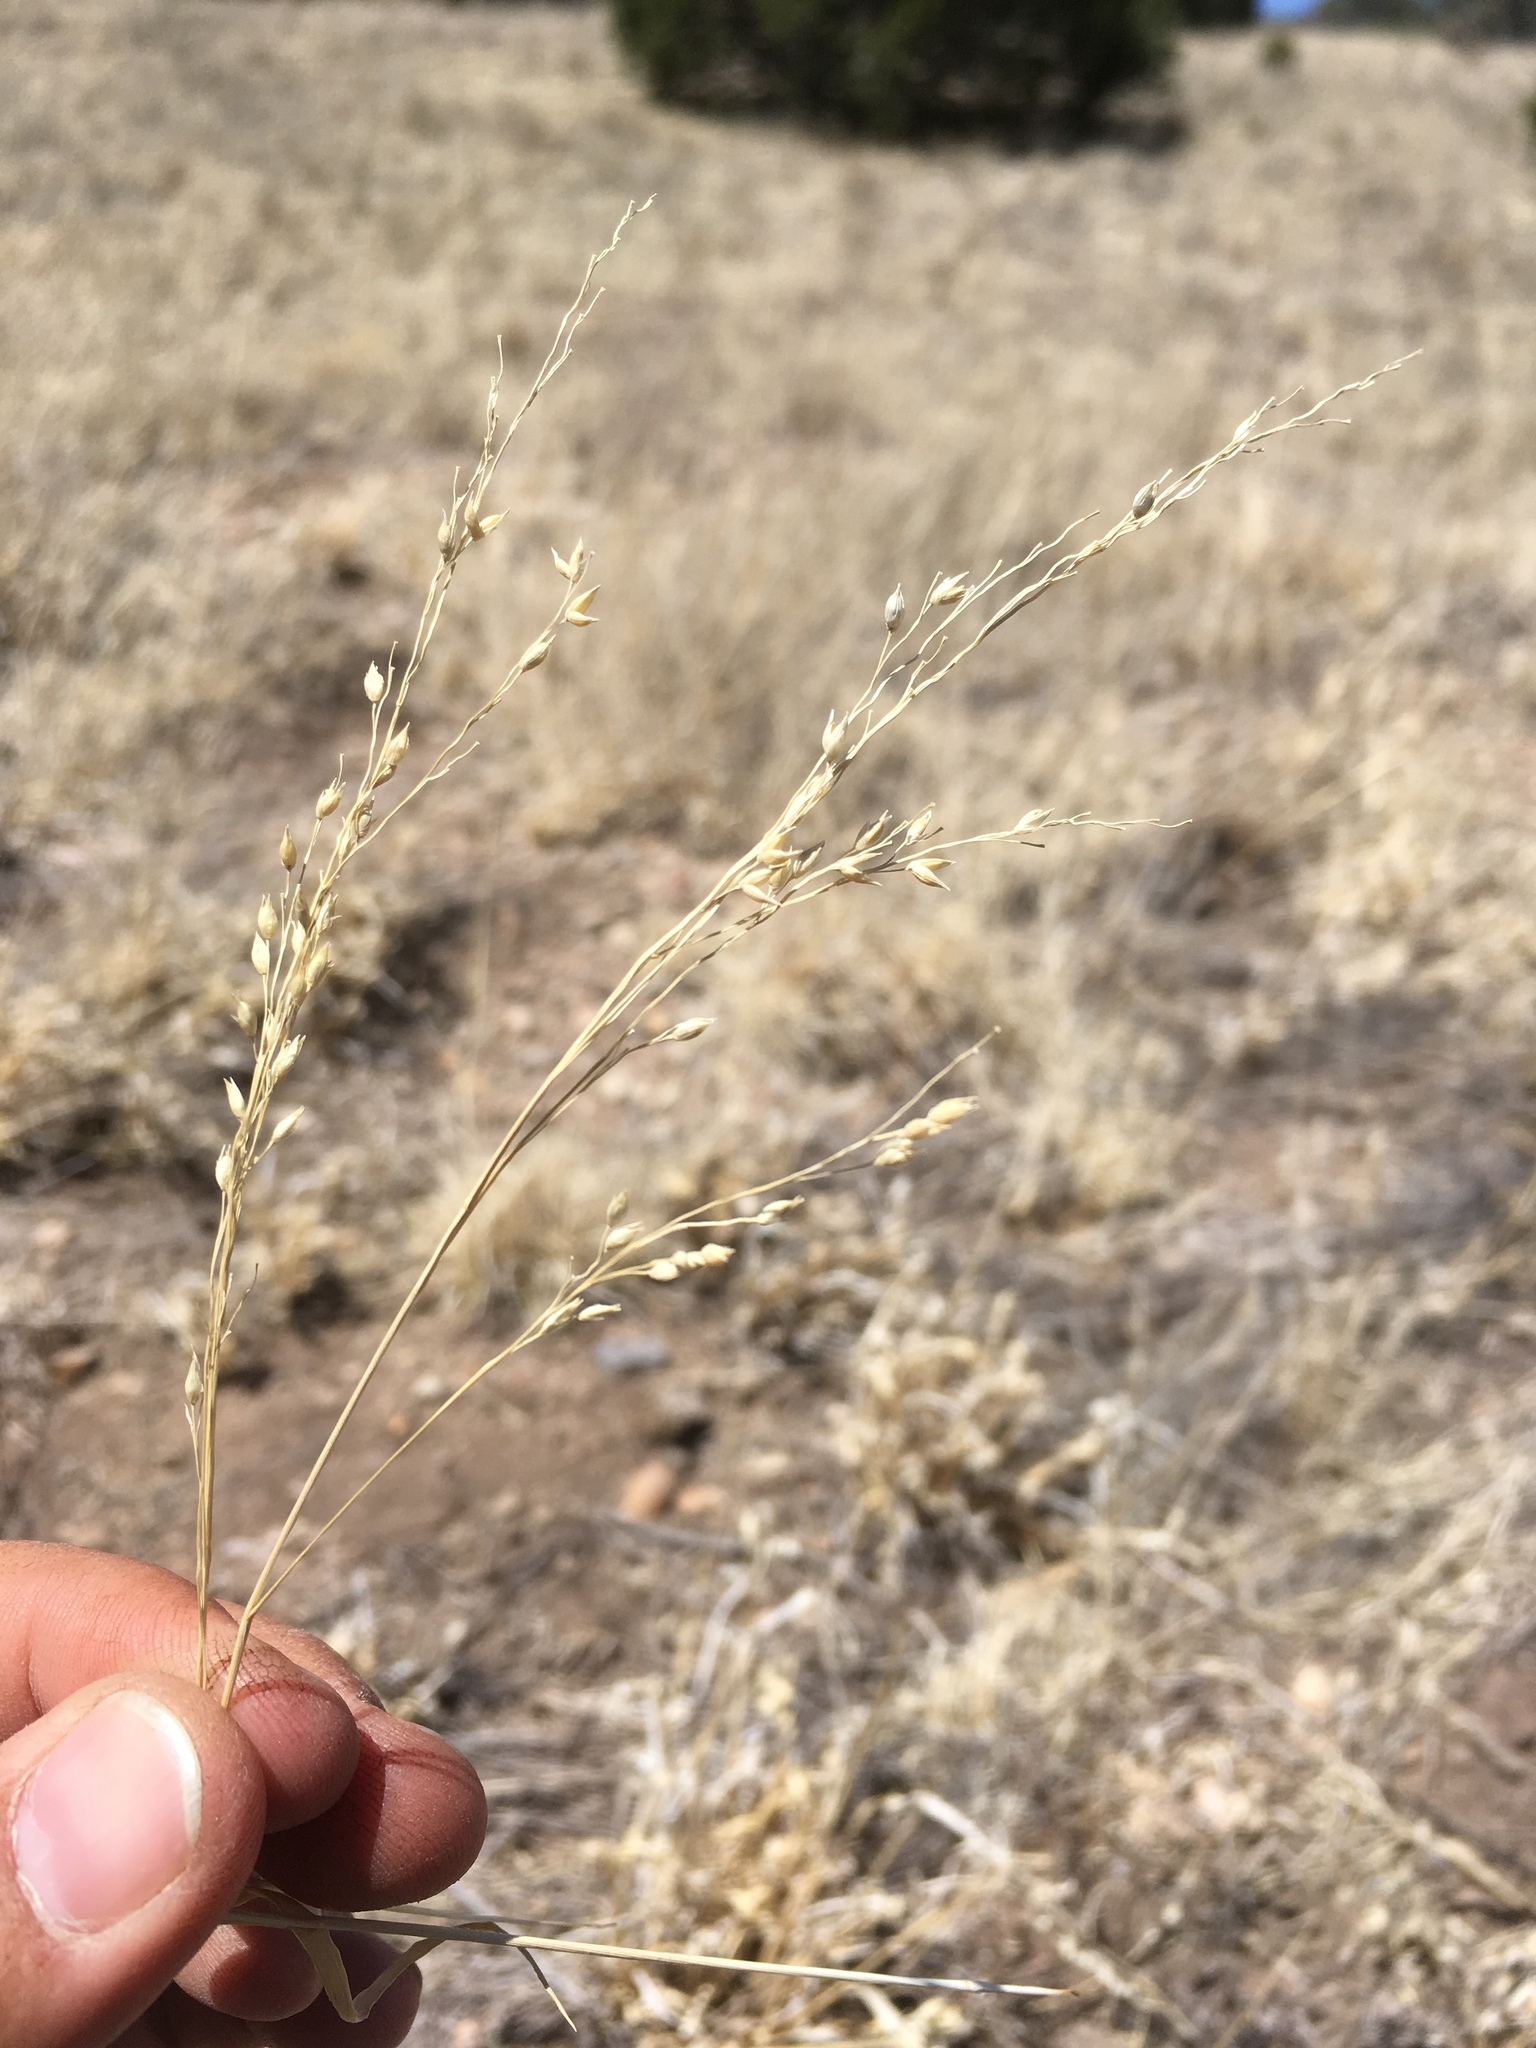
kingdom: Plantae
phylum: Tracheophyta
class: Liliopsida
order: Poales
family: Poaceae
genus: Panicum
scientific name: Panicum hallii
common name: Hall's witchgrass
